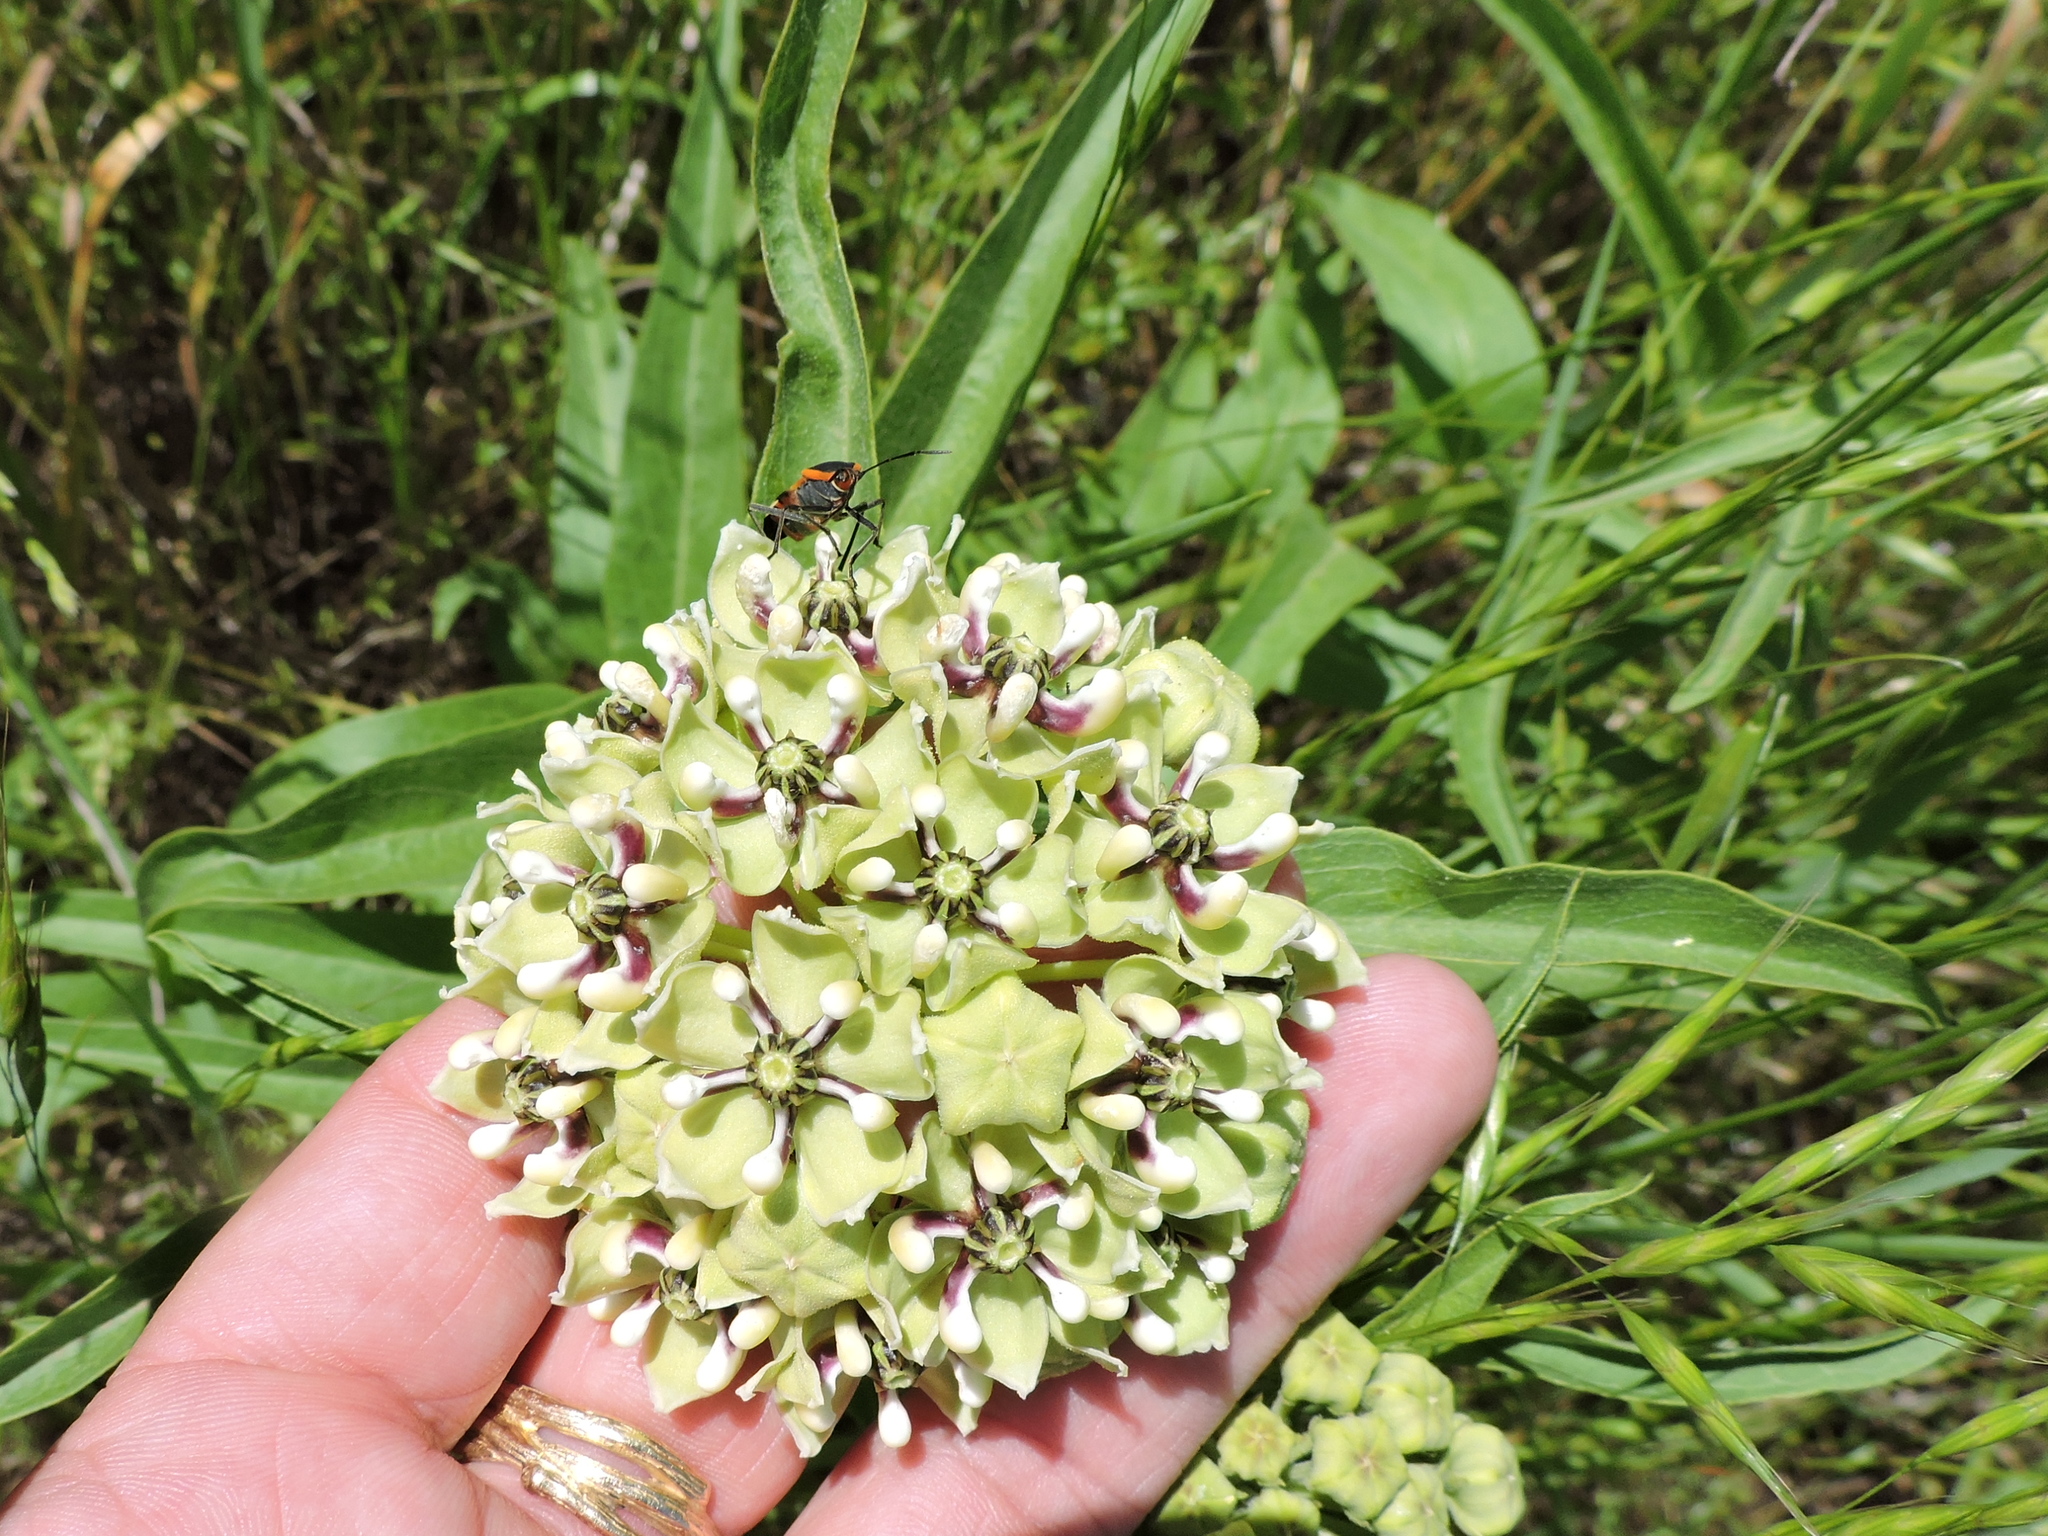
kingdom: Plantae
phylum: Tracheophyta
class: Magnoliopsida
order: Gentianales
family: Apocynaceae
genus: Asclepias
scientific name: Asclepias asperula
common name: Antelope horns
